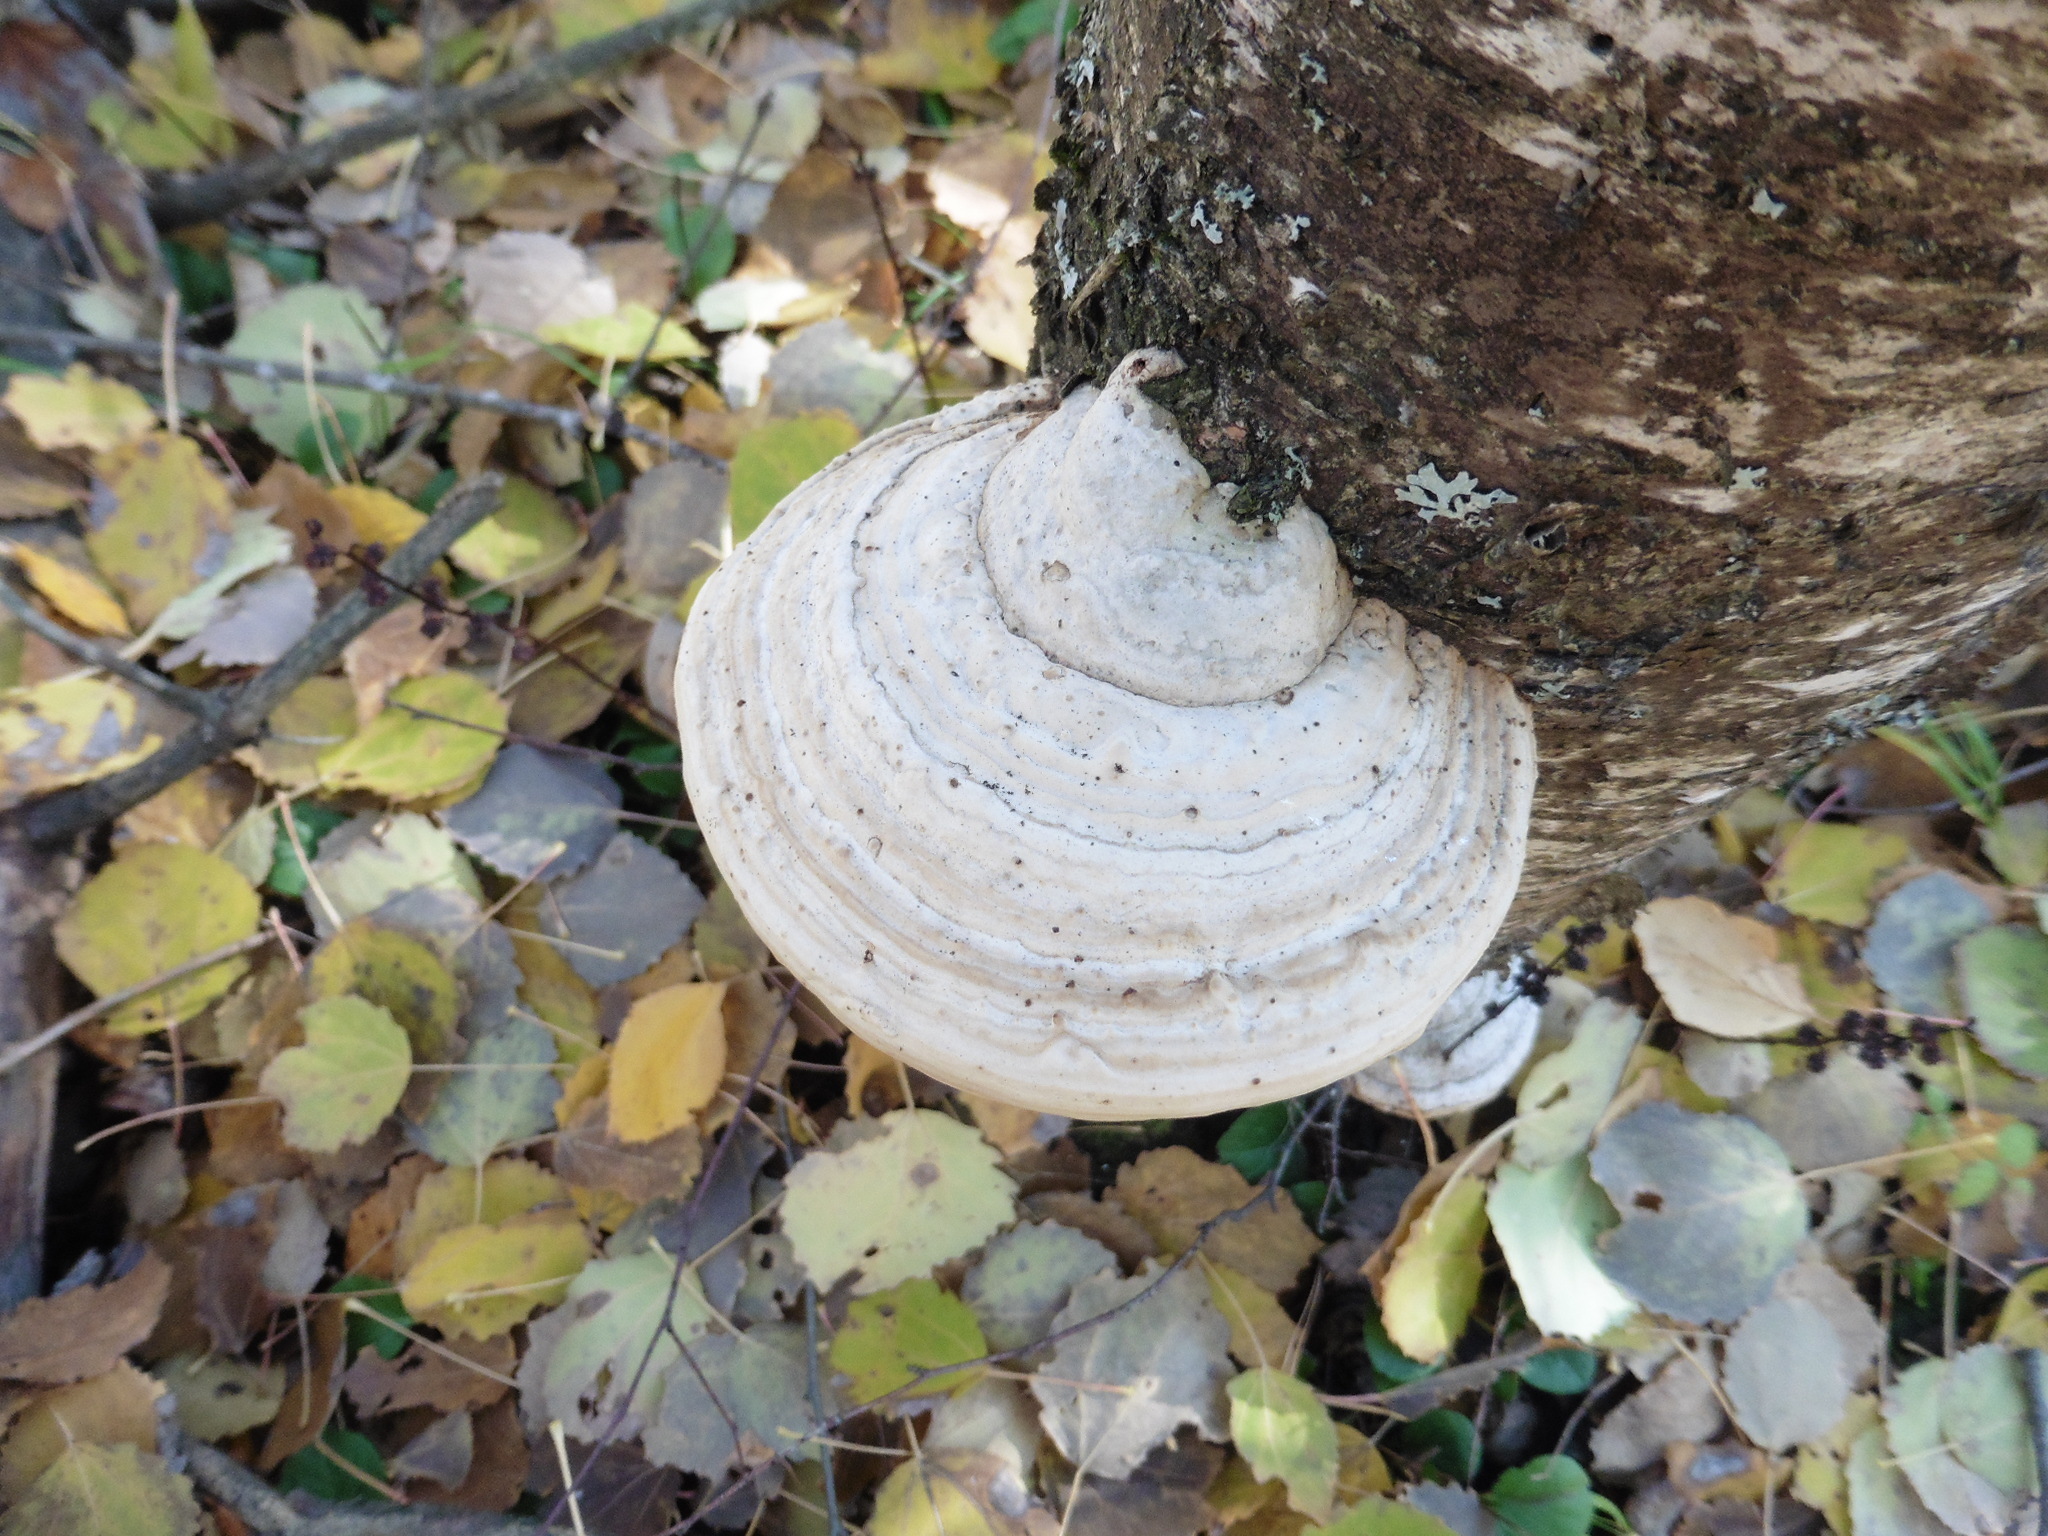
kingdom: Fungi
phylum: Basidiomycota
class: Agaricomycetes
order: Polyporales
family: Polyporaceae
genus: Fomes
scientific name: Fomes fomentarius
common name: Hoof fungus
